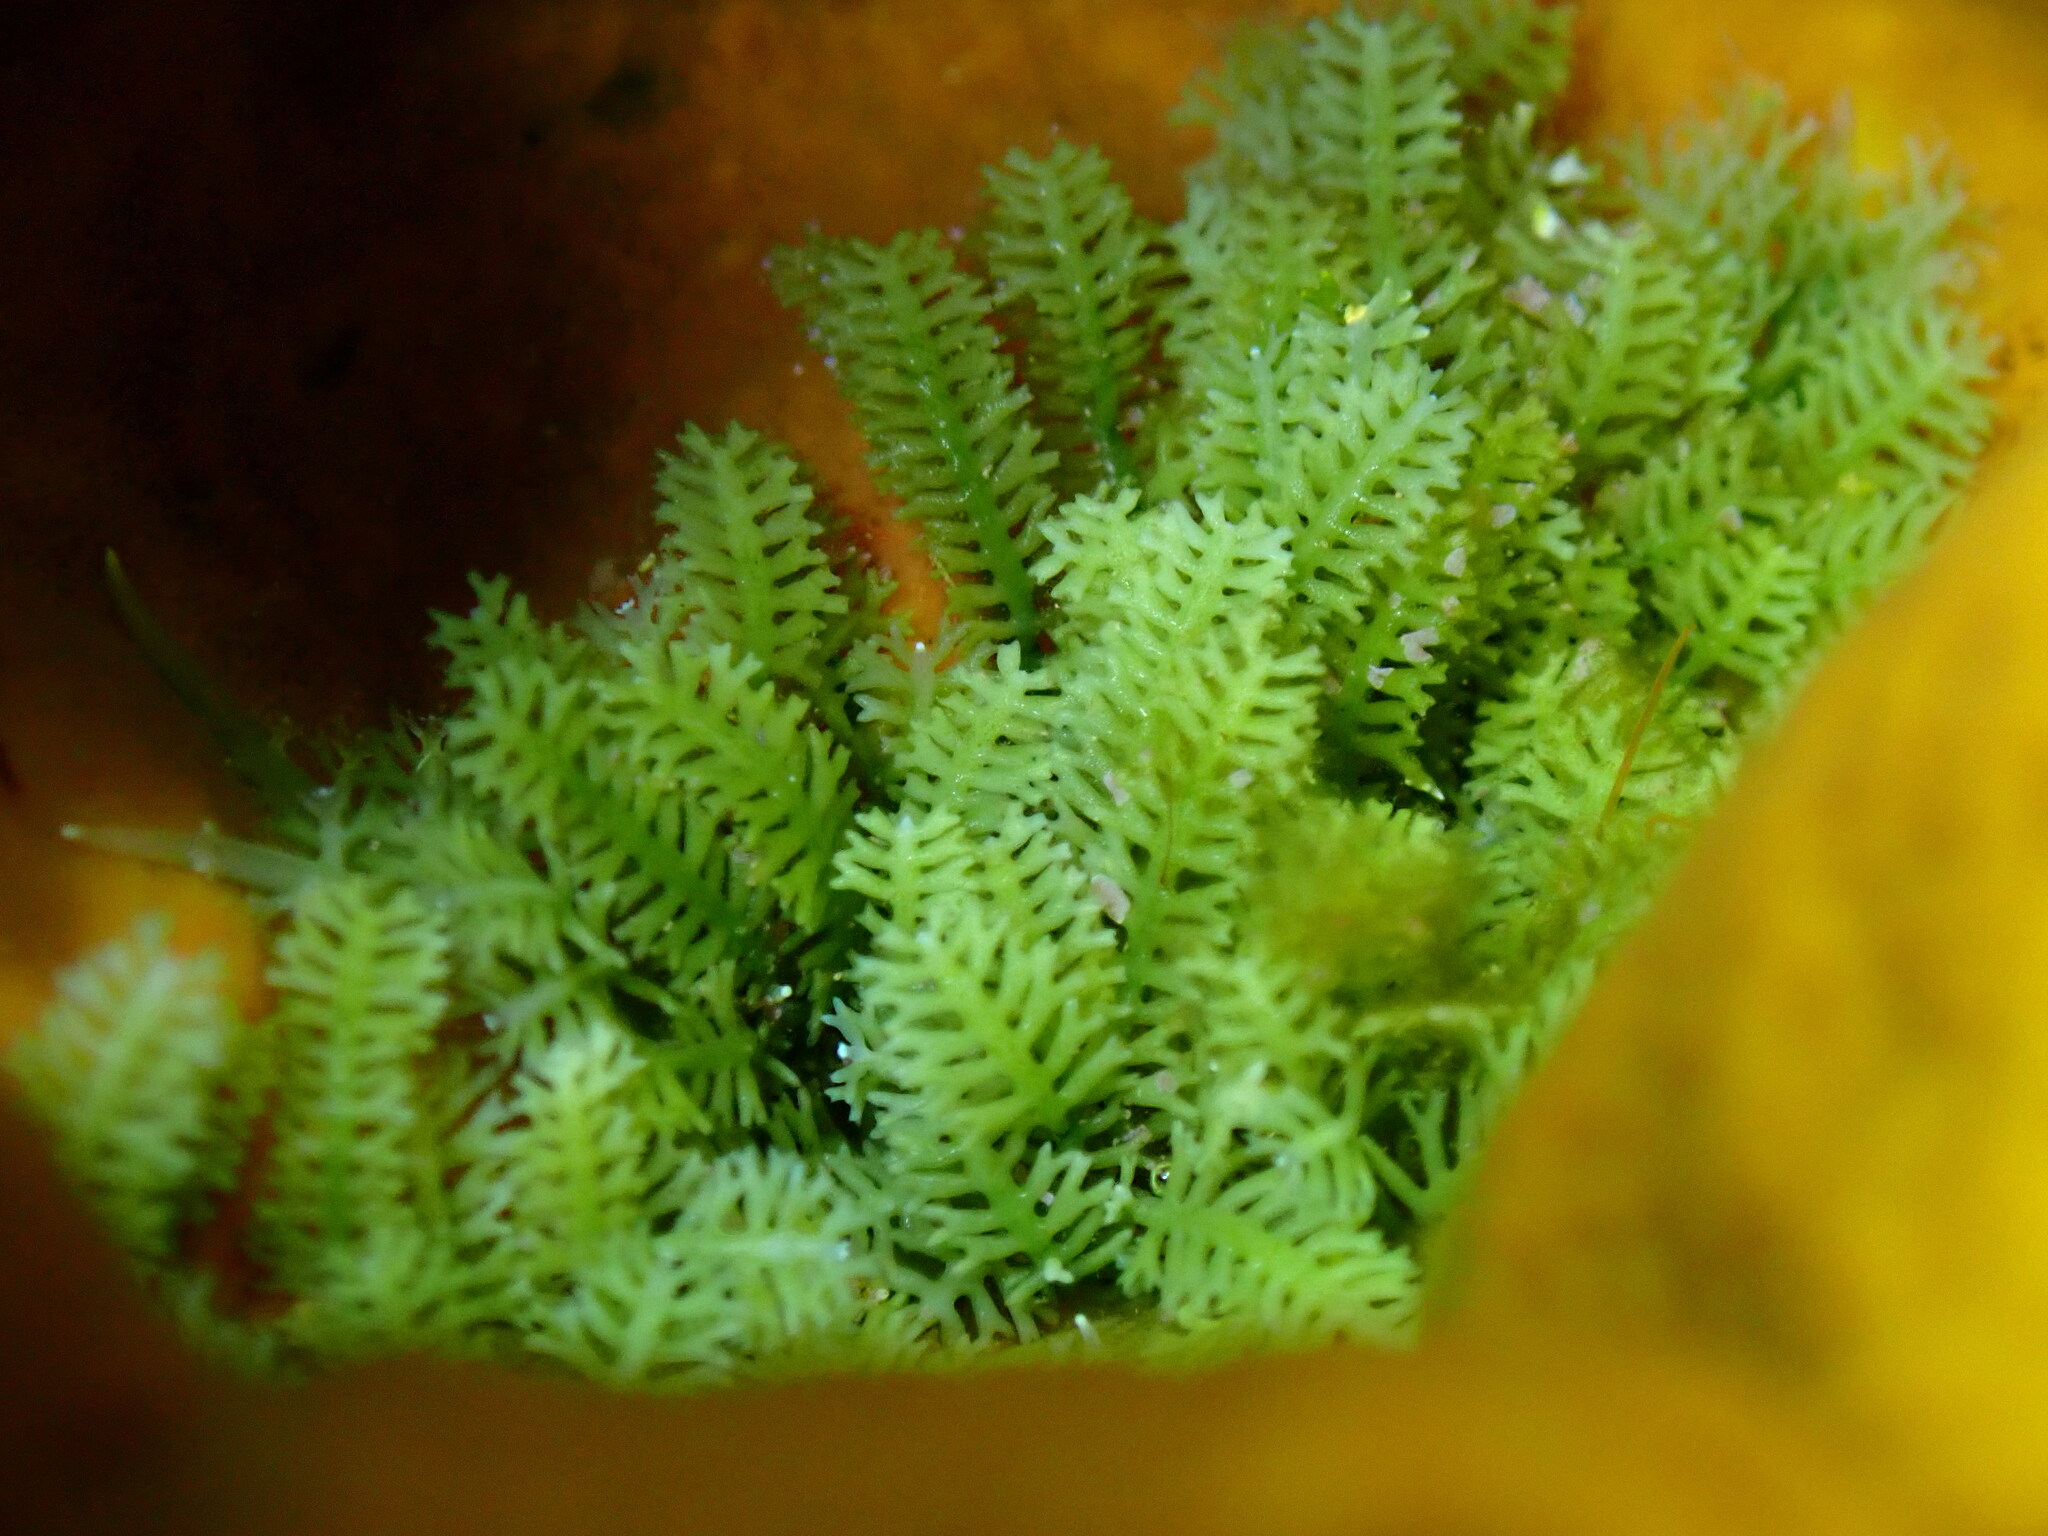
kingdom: Plantae
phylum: Chlorophyta
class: Ulvophyceae
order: Bryopsidales
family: Caulerpaceae
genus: Caulerpa
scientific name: Caulerpa webbiana
